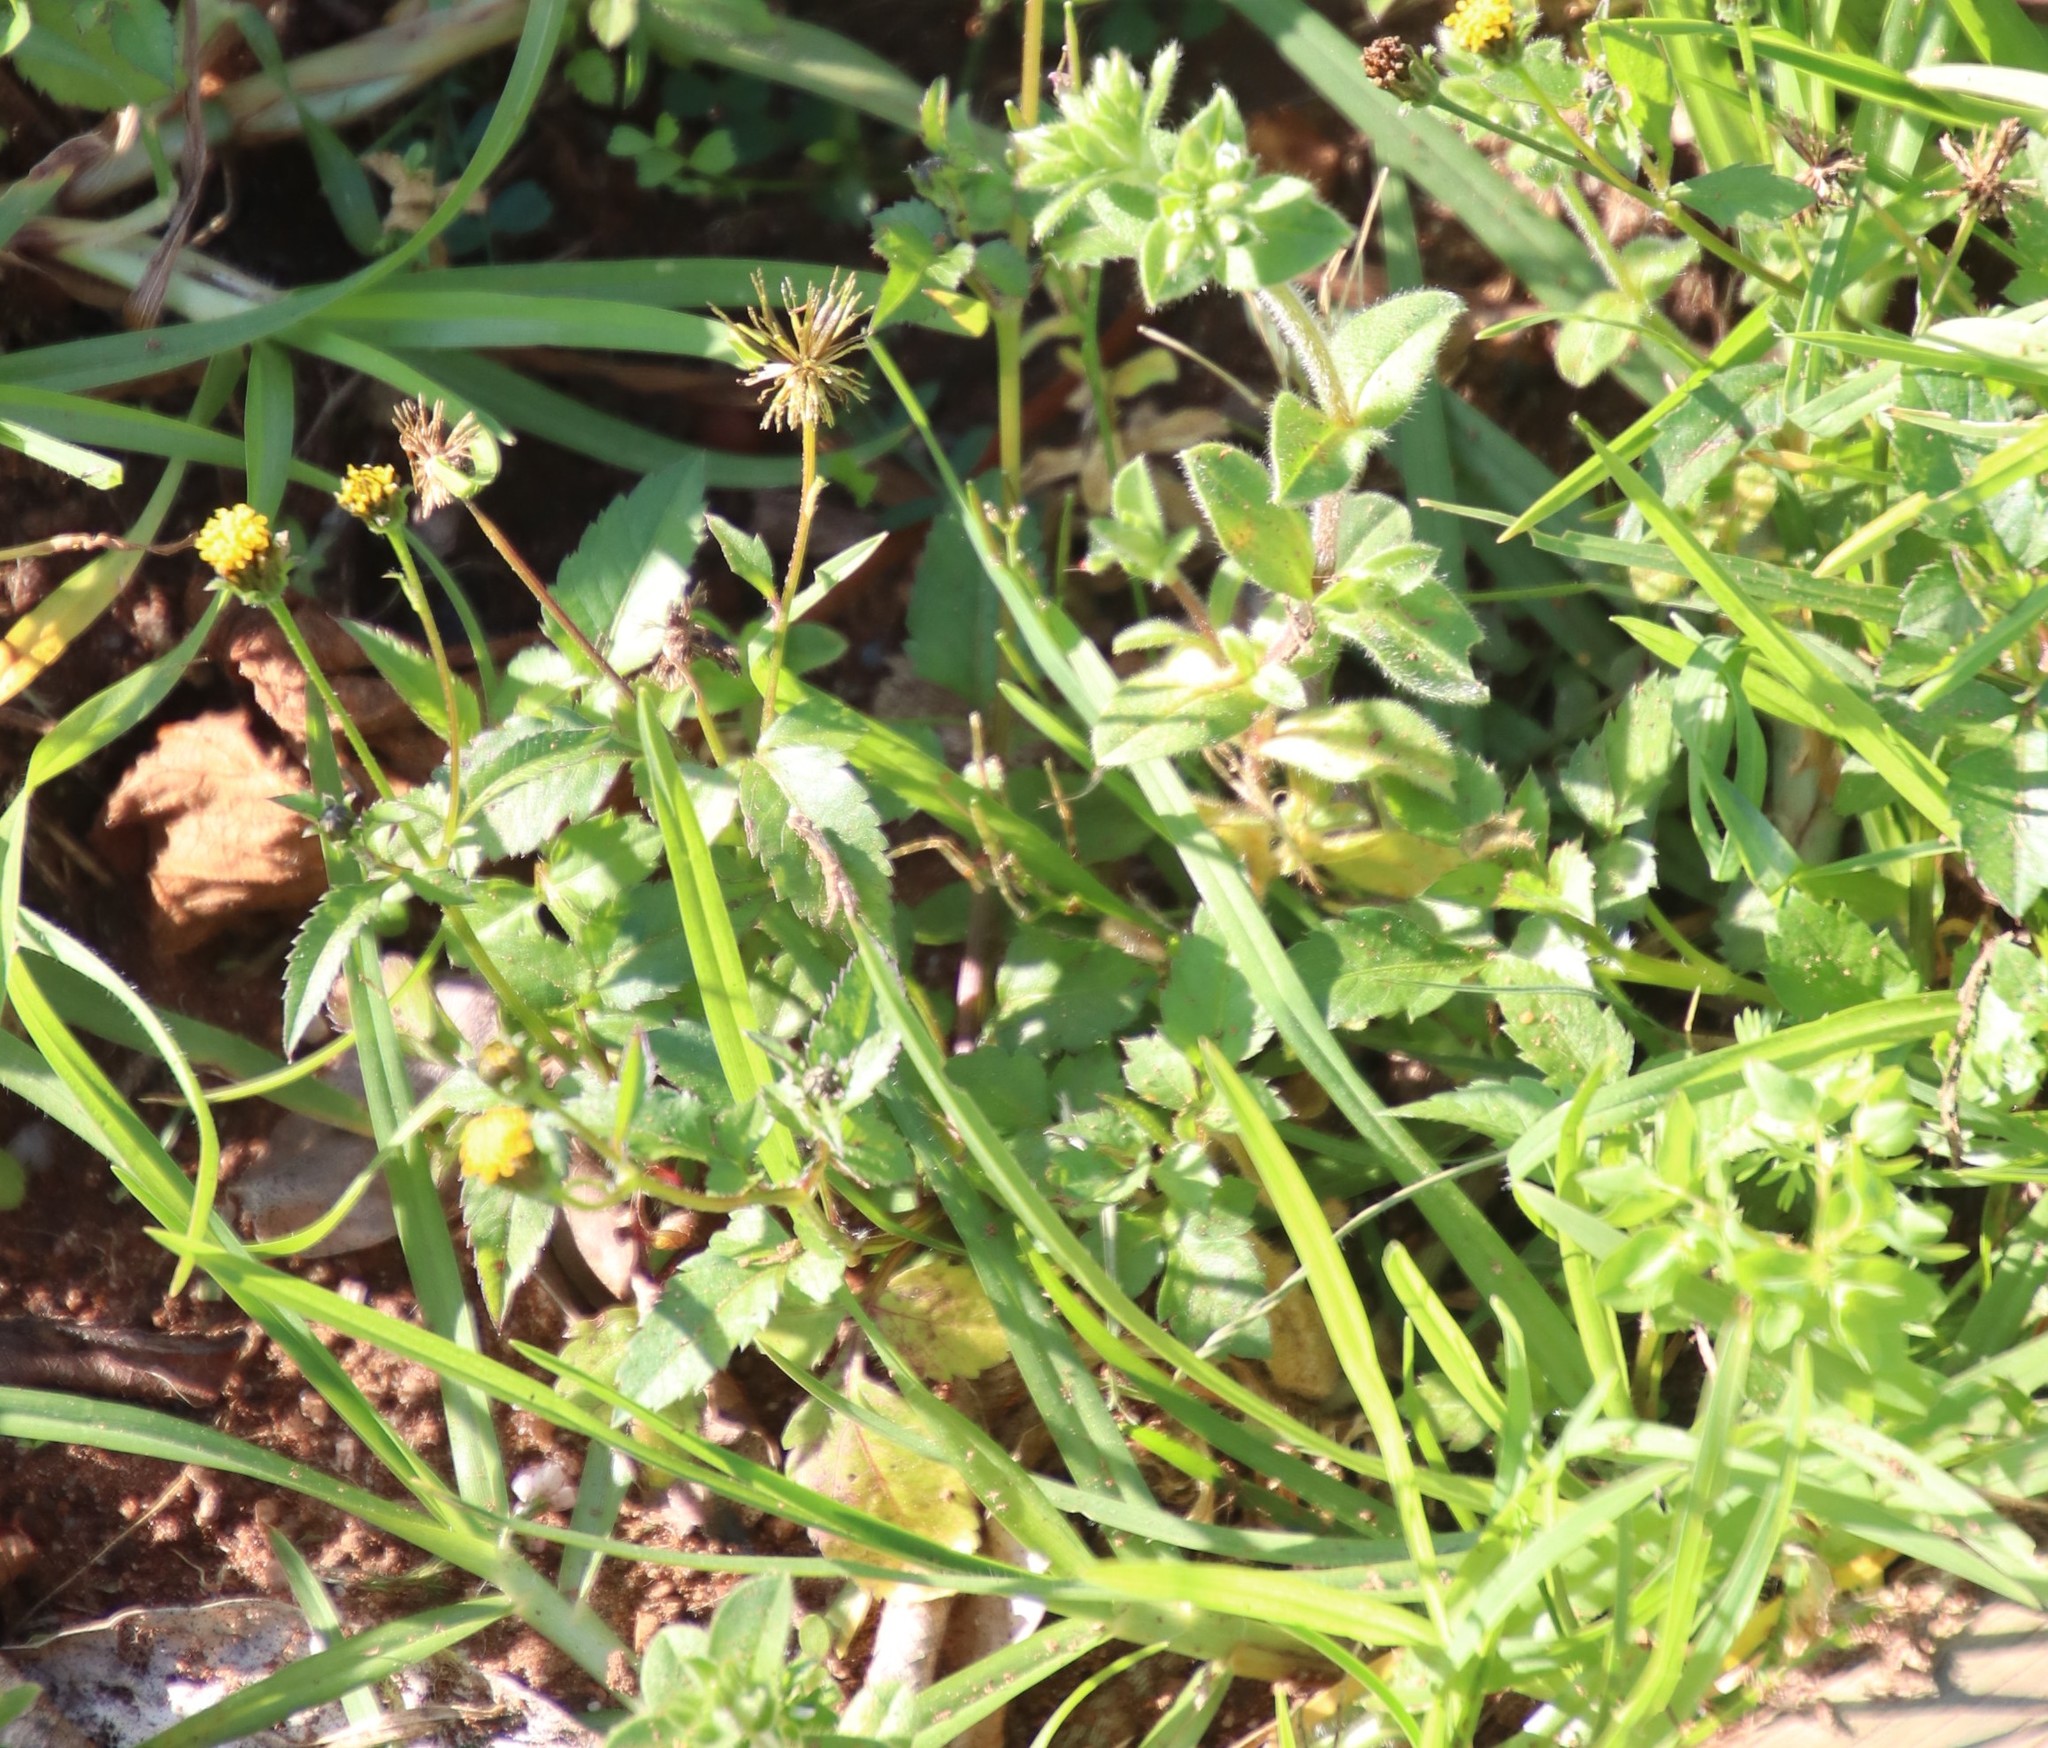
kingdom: Plantae
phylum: Tracheophyta
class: Magnoliopsida
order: Asterales
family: Asteraceae
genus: Bidens
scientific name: Bidens pilosa
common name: Black-jack
